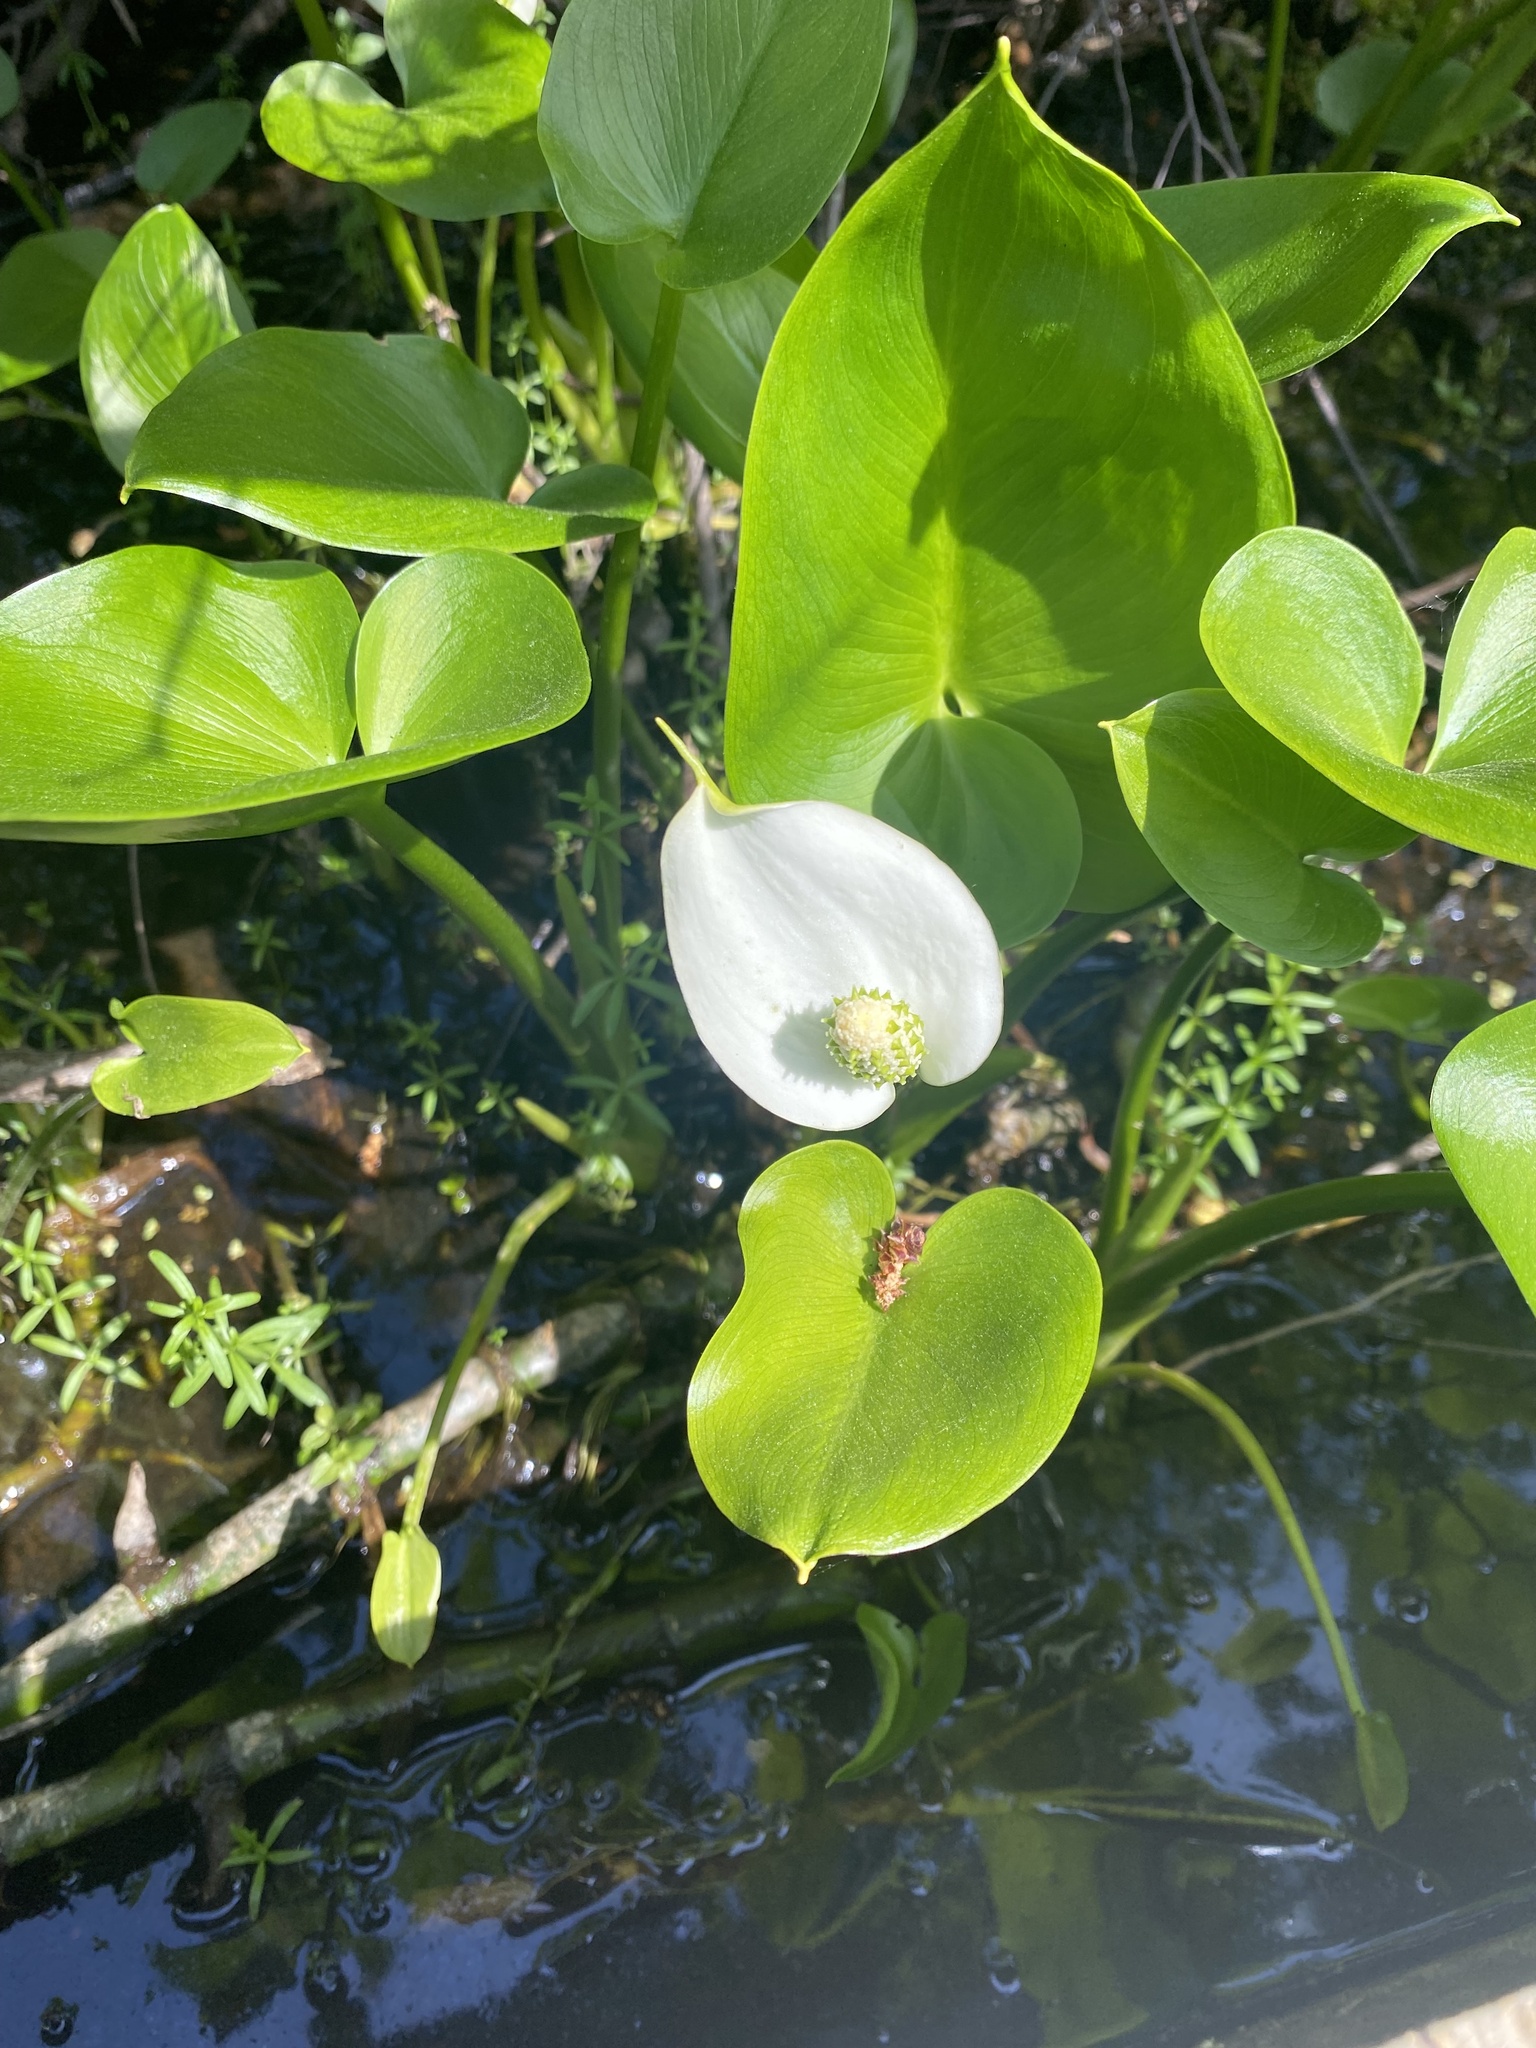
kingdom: Plantae
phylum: Tracheophyta
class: Liliopsida
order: Alismatales
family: Araceae
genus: Calla
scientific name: Calla palustris
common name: Bog arum
